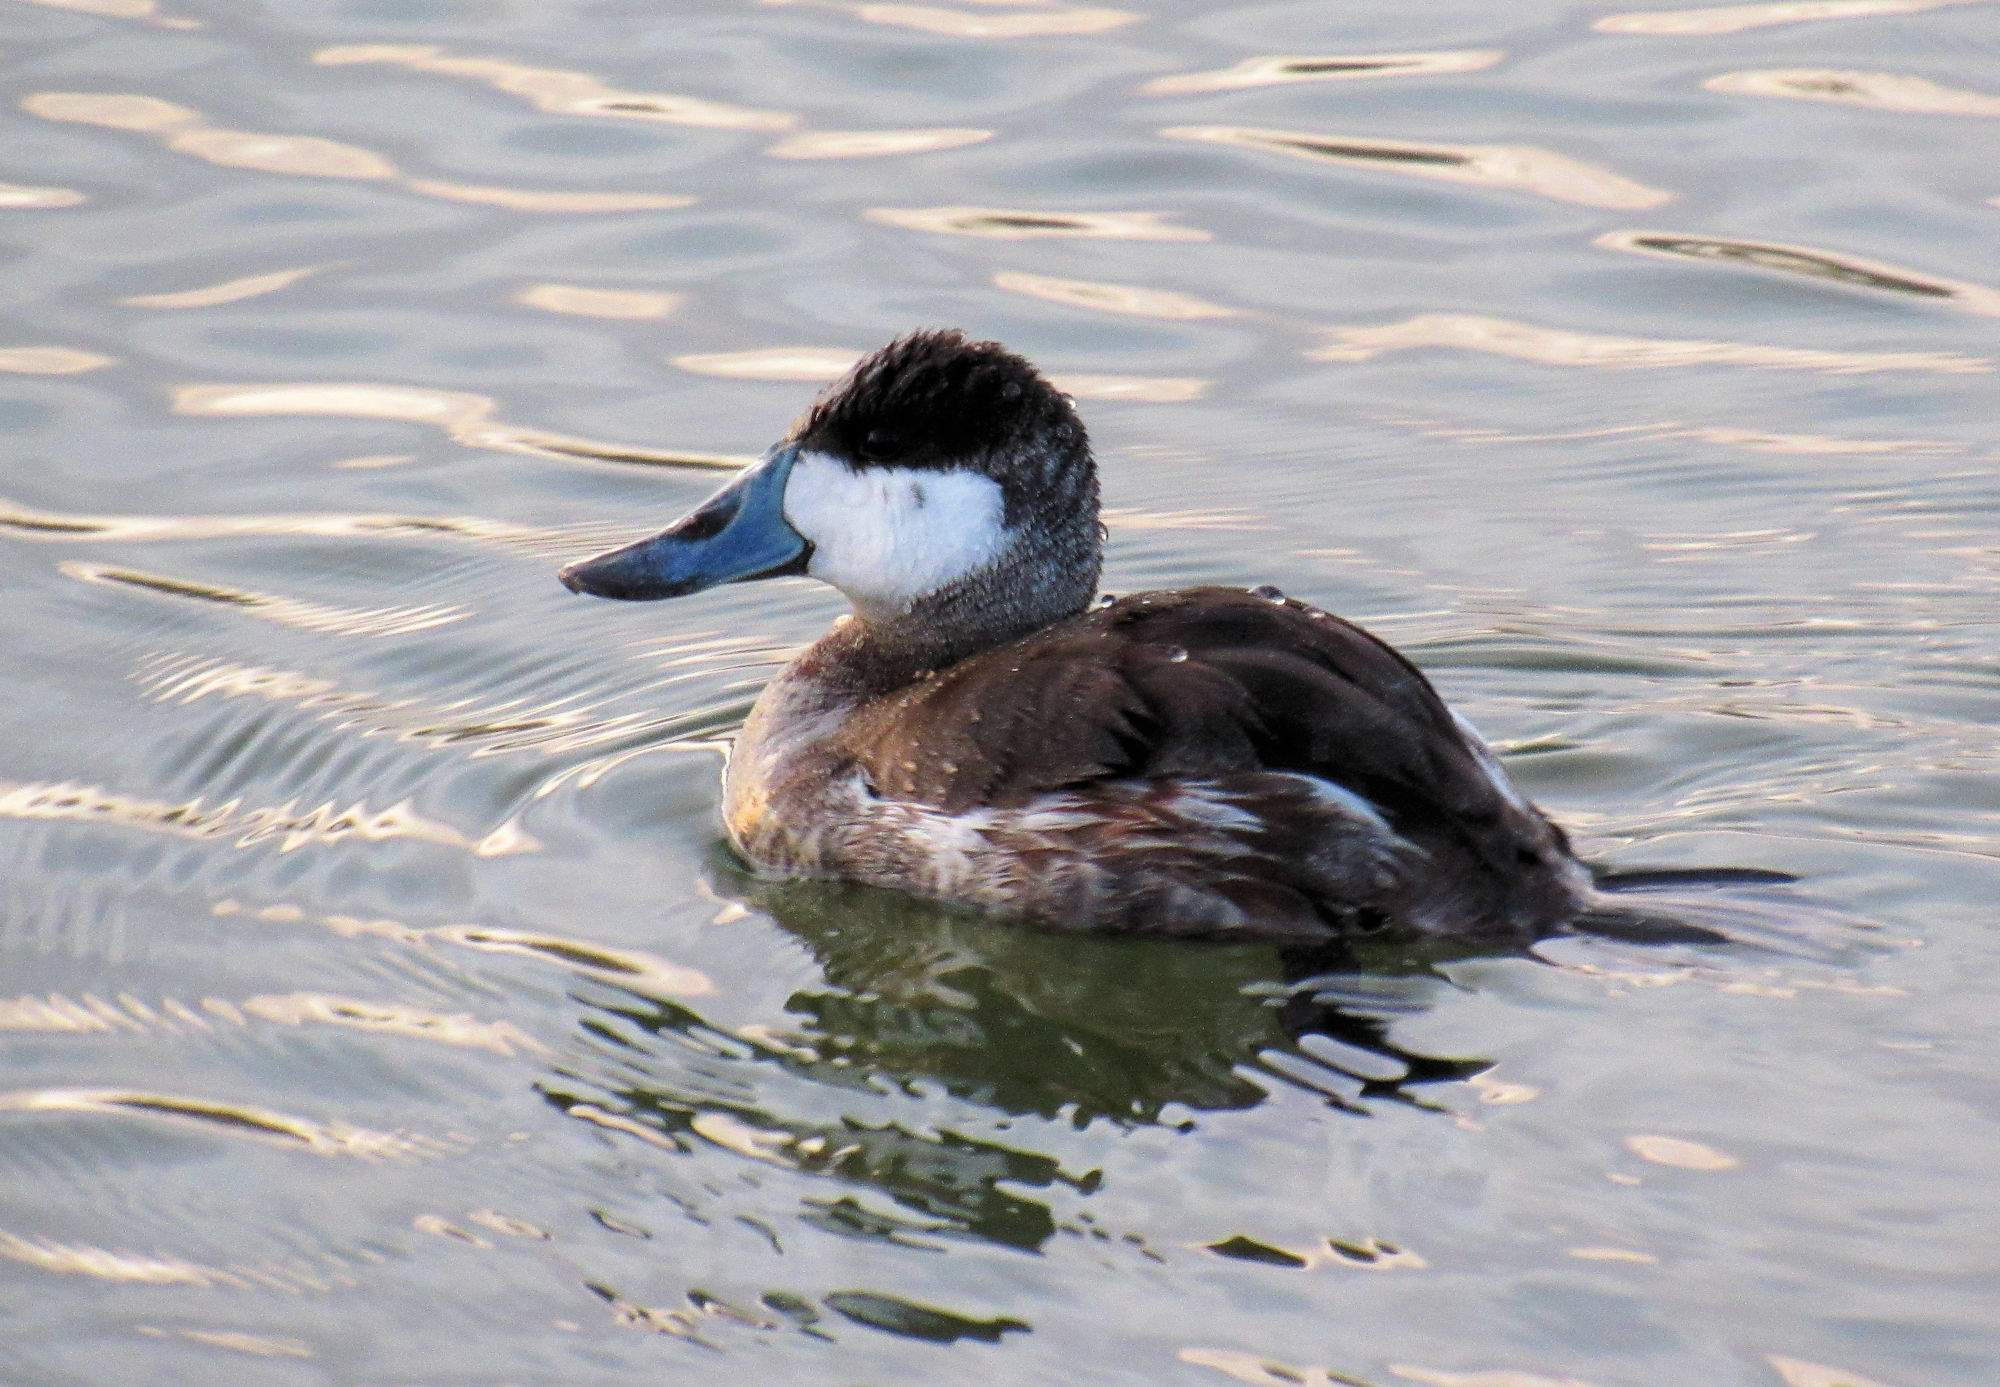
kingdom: Animalia
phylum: Chordata
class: Aves
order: Anseriformes
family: Anatidae
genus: Oxyura
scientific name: Oxyura jamaicensis
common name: Ruddy duck
